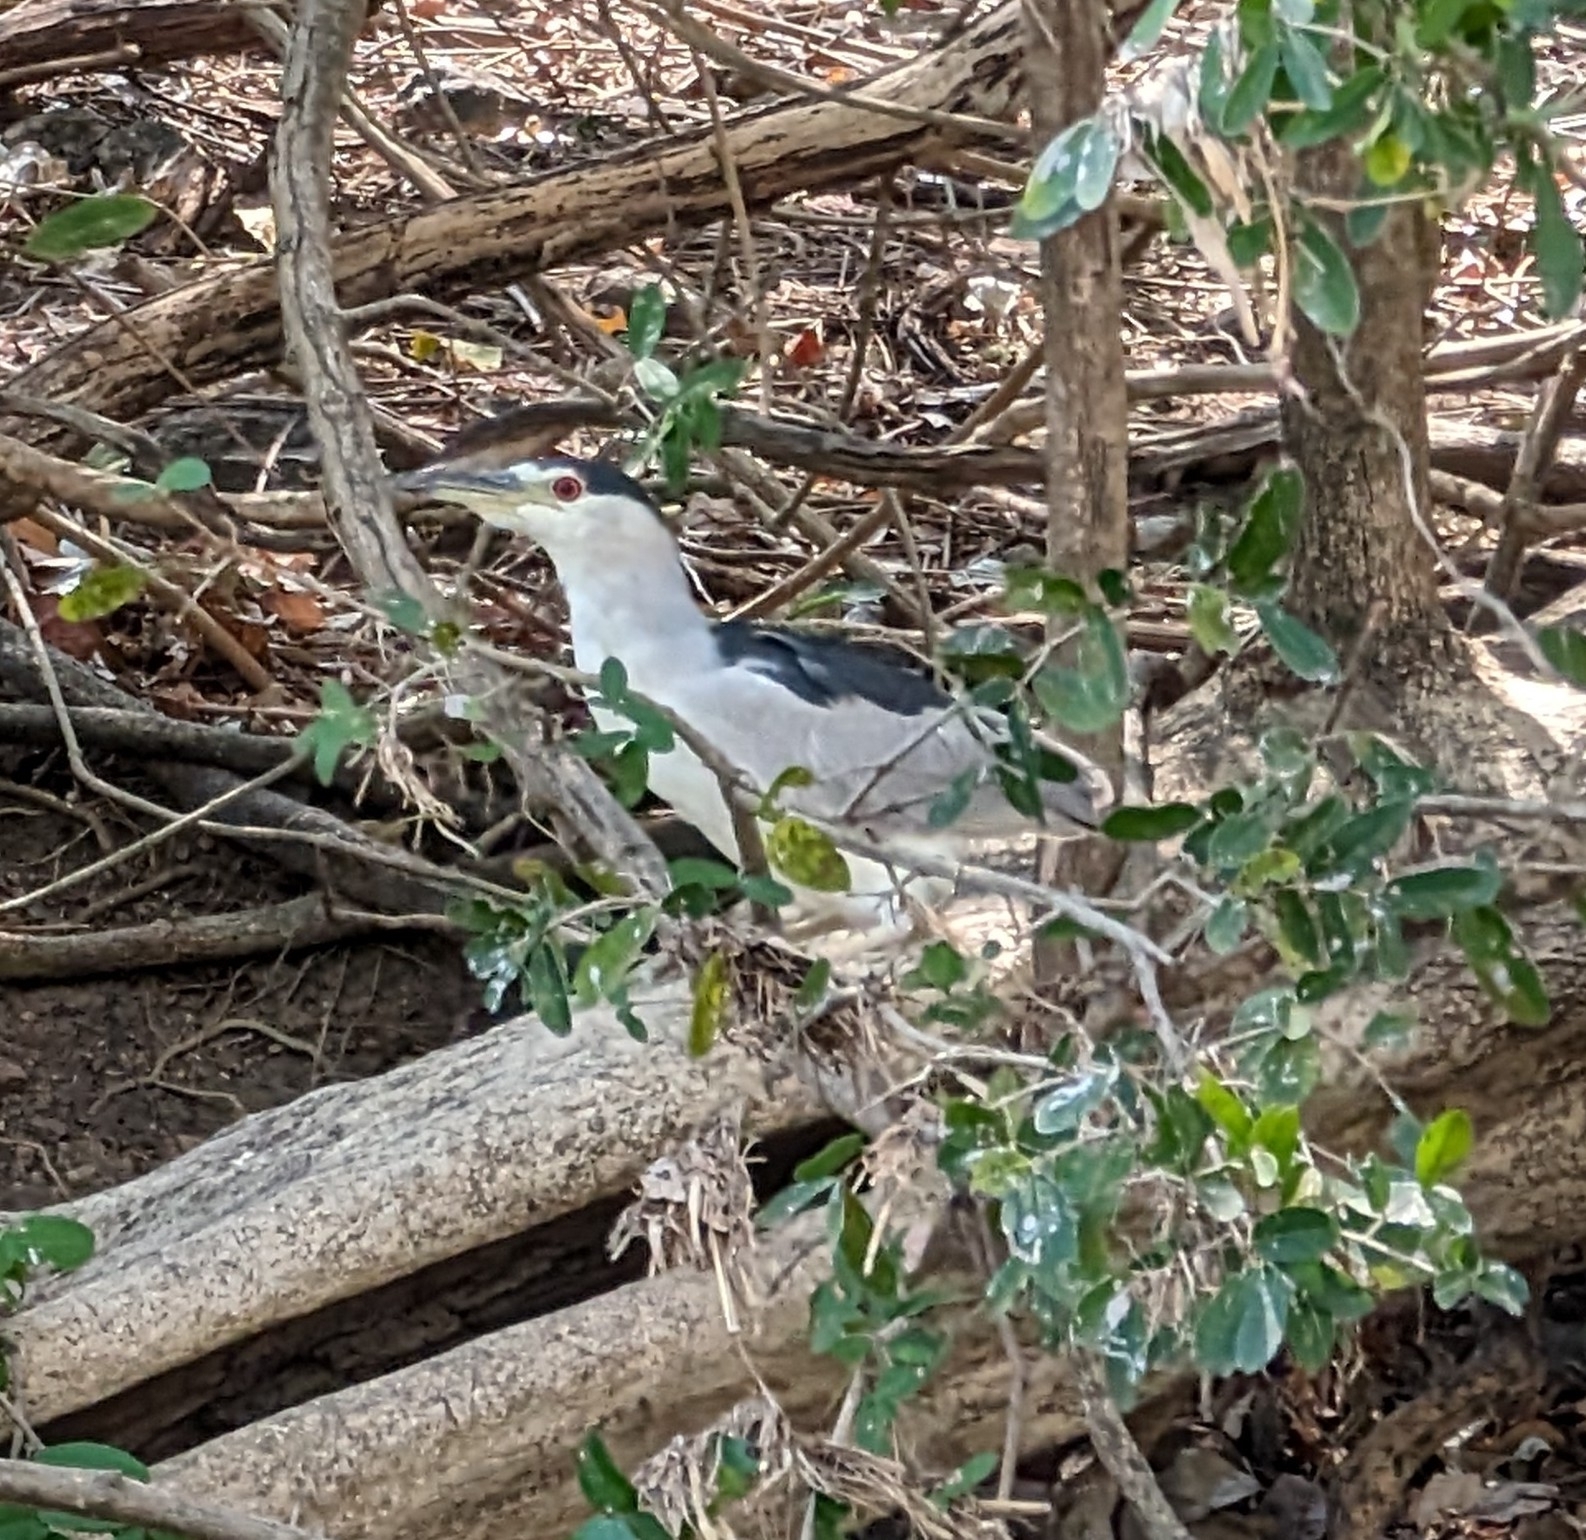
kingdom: Animalia
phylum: Chordata
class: Aves
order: Pelecaniformes
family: Ardeidae
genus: Nycticorax
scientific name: Nycticorax nycticorax
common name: Black-crowned night heron
